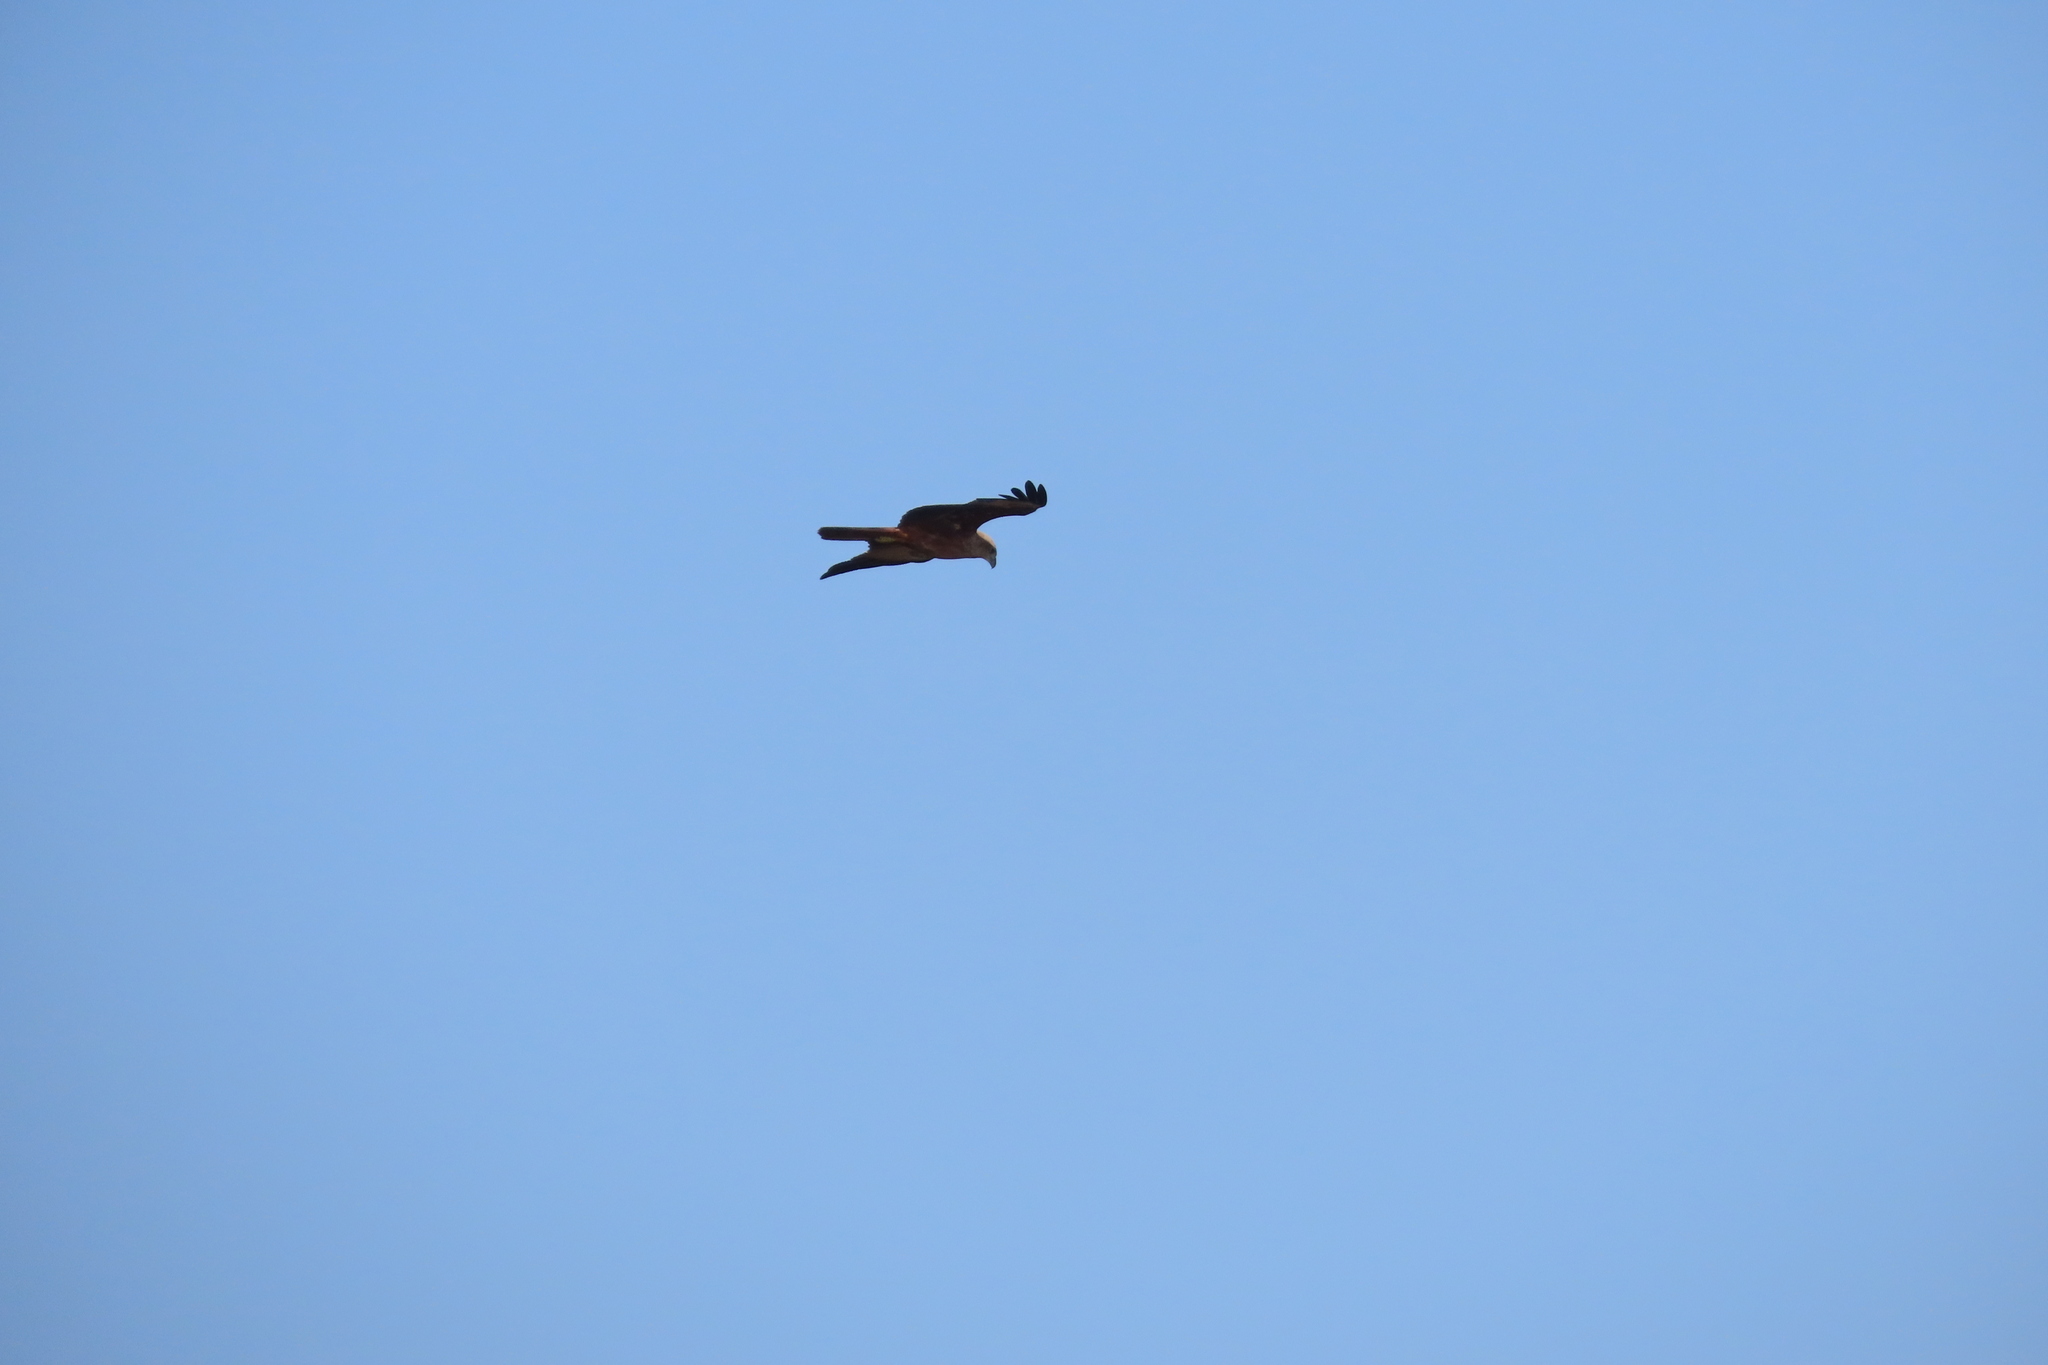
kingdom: Animalia
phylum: Chordata
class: Aves
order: Accipitriformes
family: Accipitridae
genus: Haliastur
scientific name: Haliastur indus
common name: Brahminy kite
